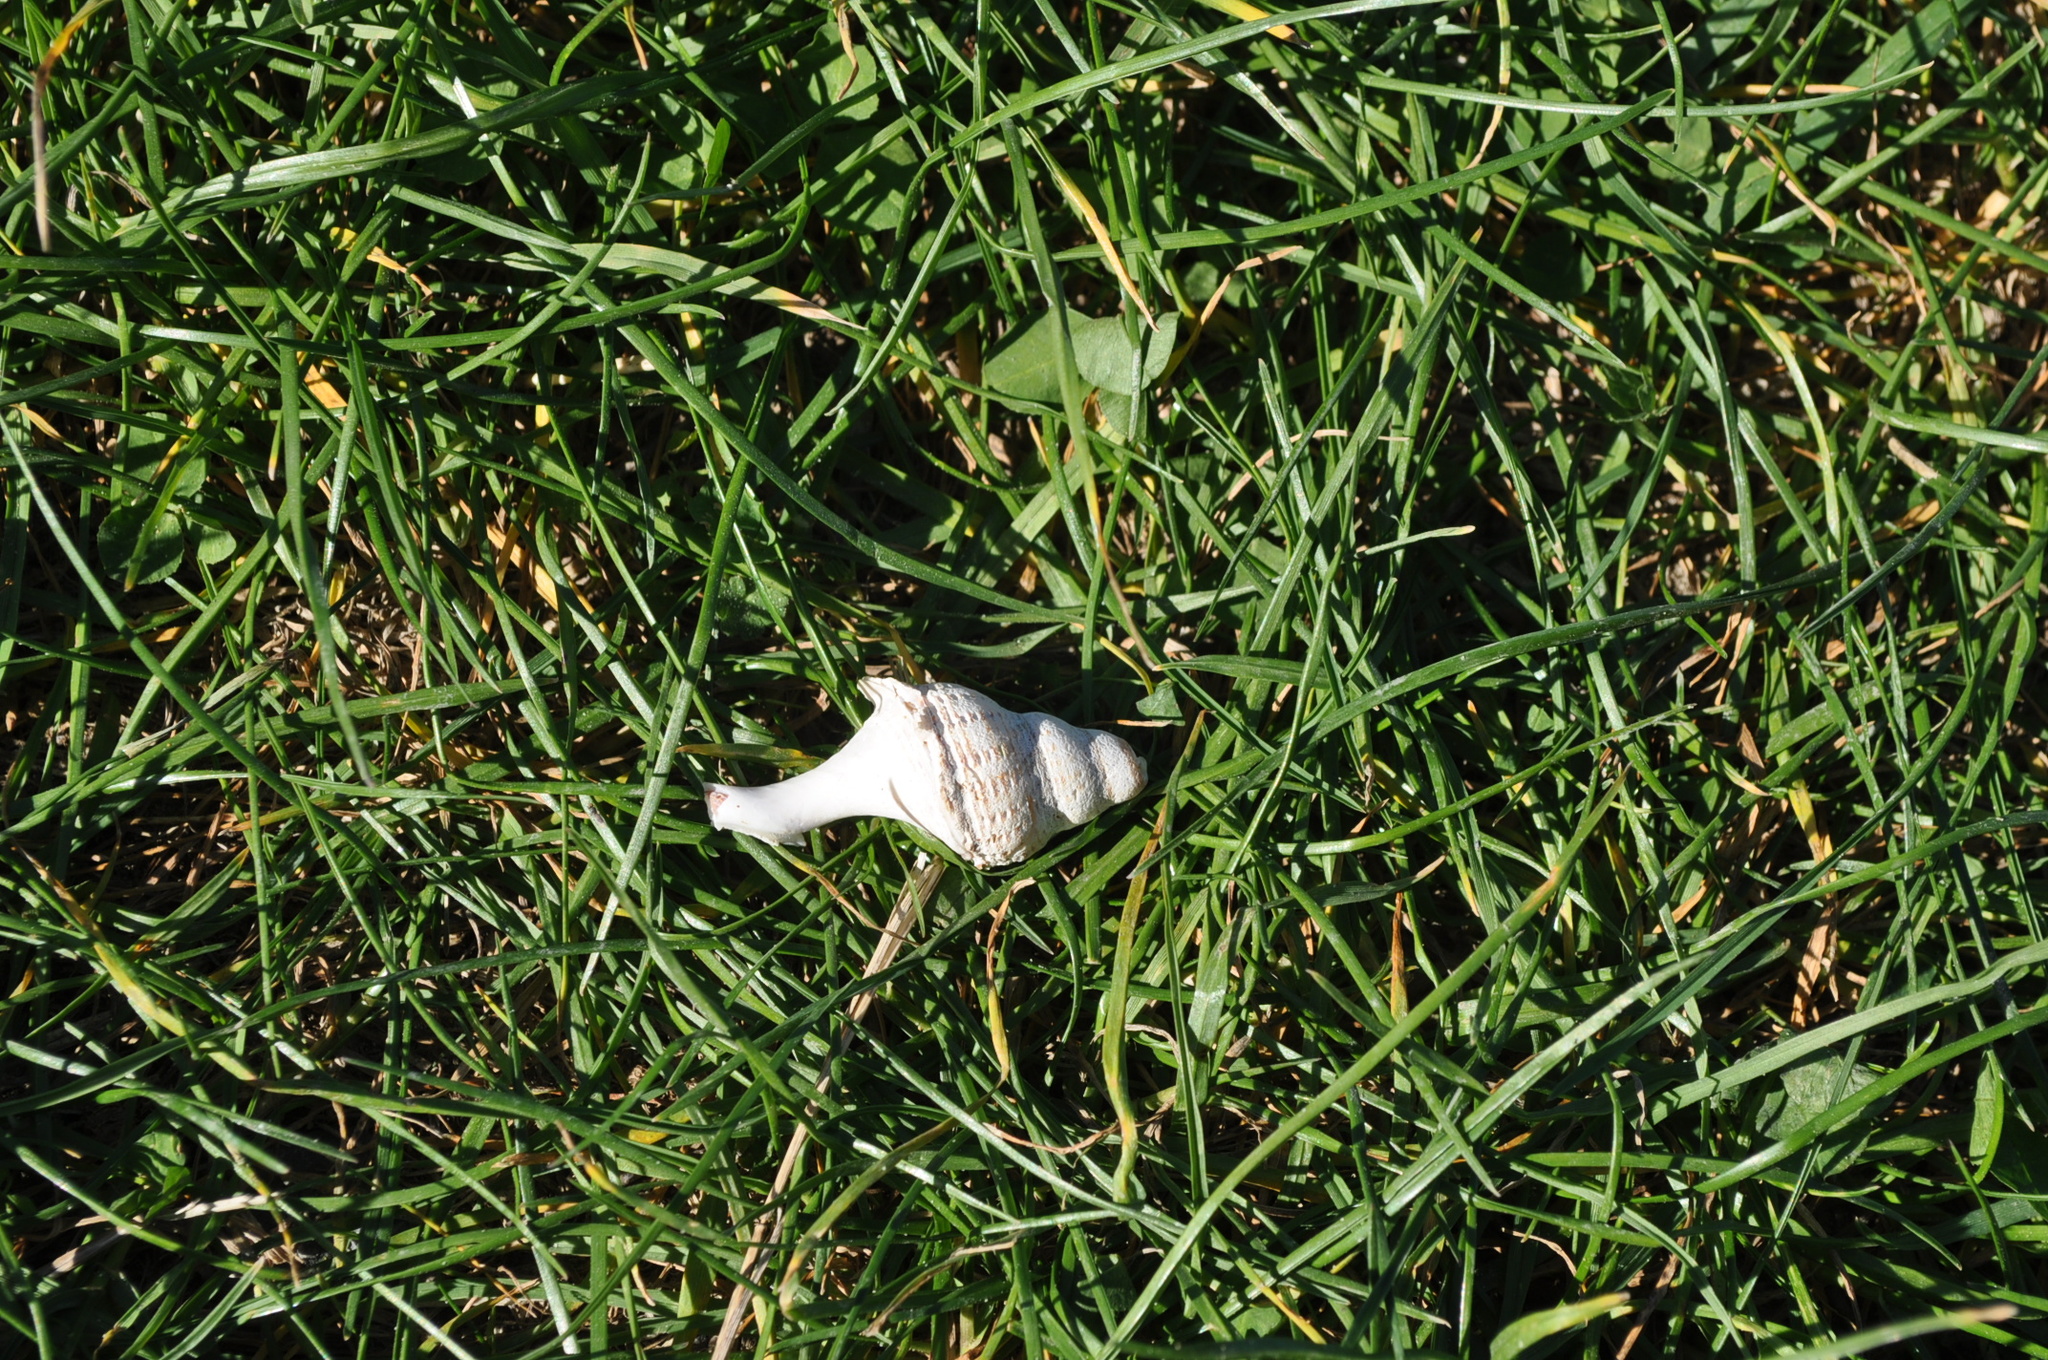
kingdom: Animalia
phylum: Mollusca
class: Gastropoda
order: Neogastropoda
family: Austrosiphonidae
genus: Penion
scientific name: Penion sulcatus
